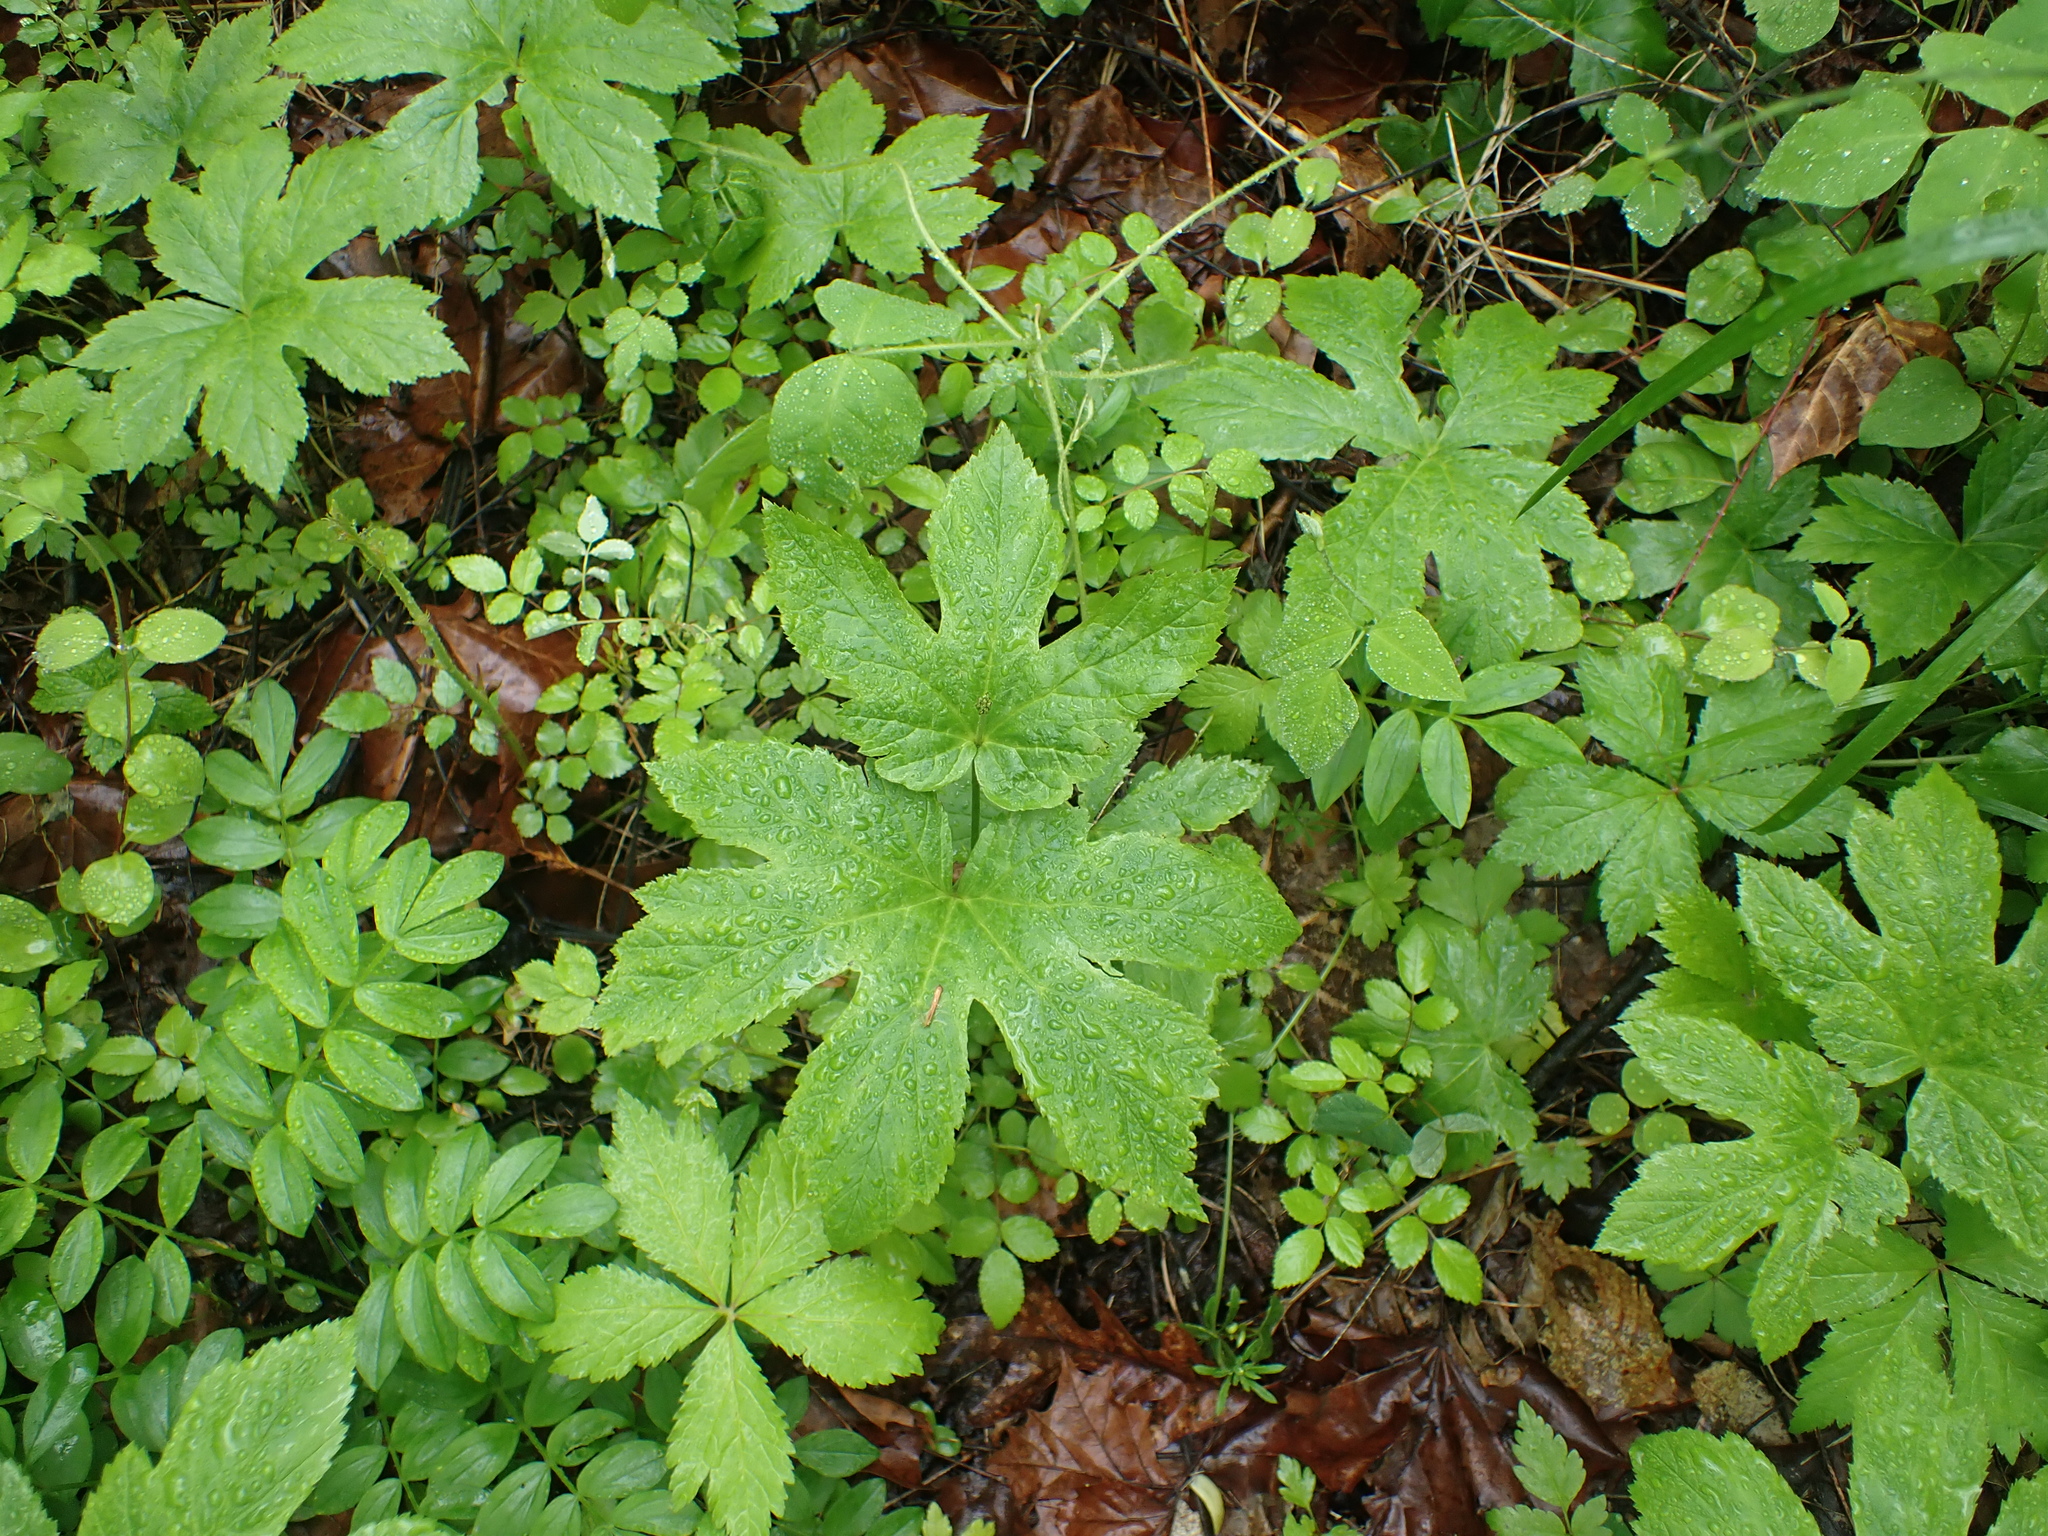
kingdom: Plantae
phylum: Tracheophyta
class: Magnoliopsida
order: Ranunculales
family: Ranunculaceae
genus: Hydrastis
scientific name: Hydrastis canadensis
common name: Goldenseal
